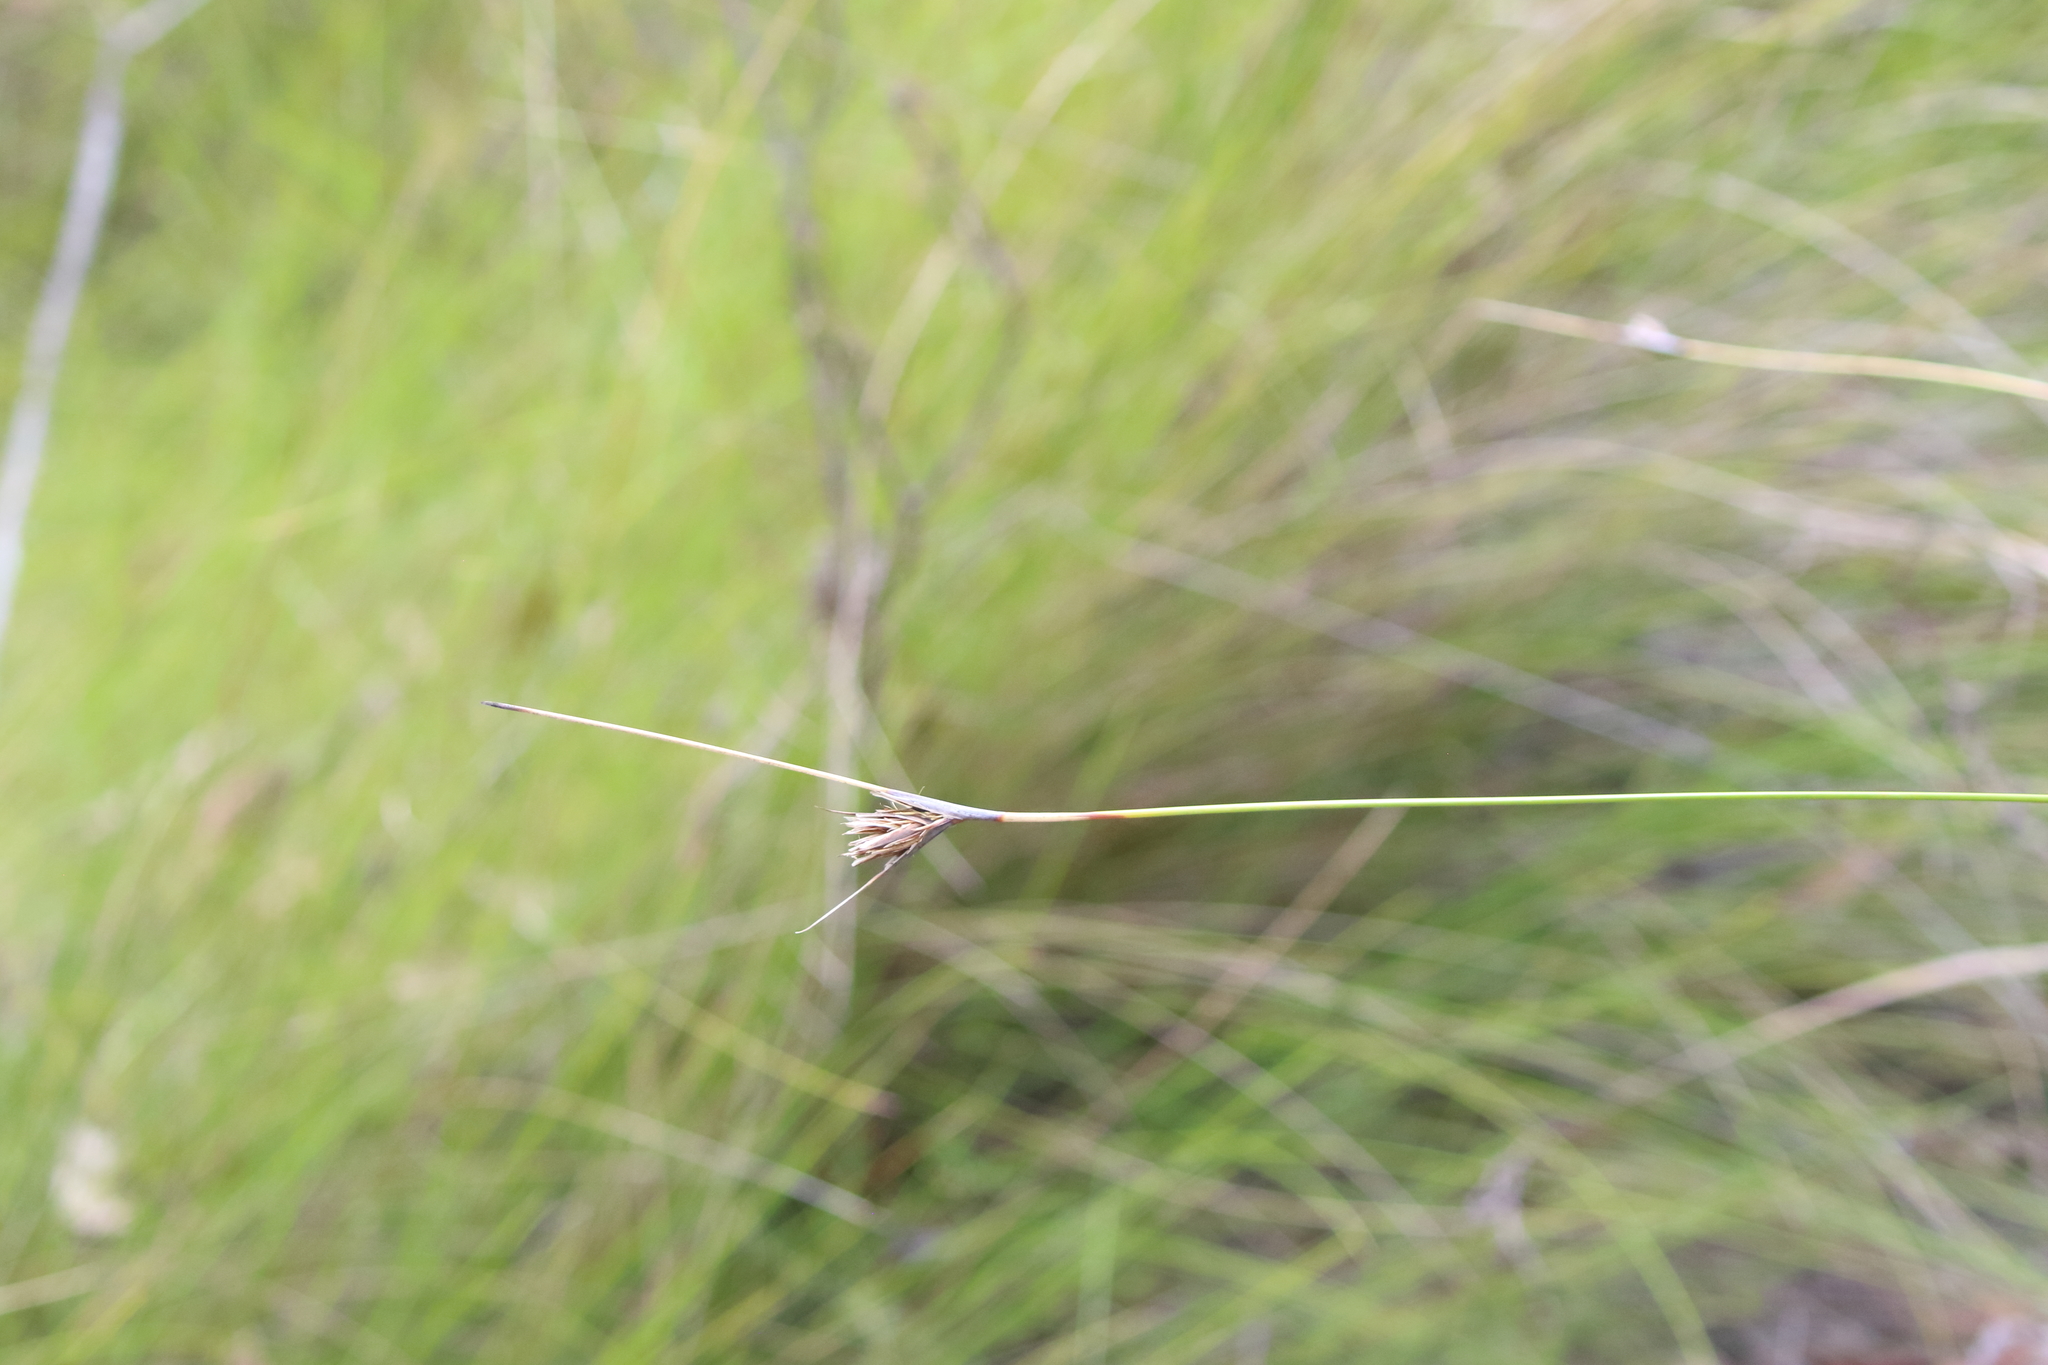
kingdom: Plantae
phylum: Tracheophyta
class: Liliopsida
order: Poales
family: Cyperaceae
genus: Ptilothrix
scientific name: Ptilothrix deusta
